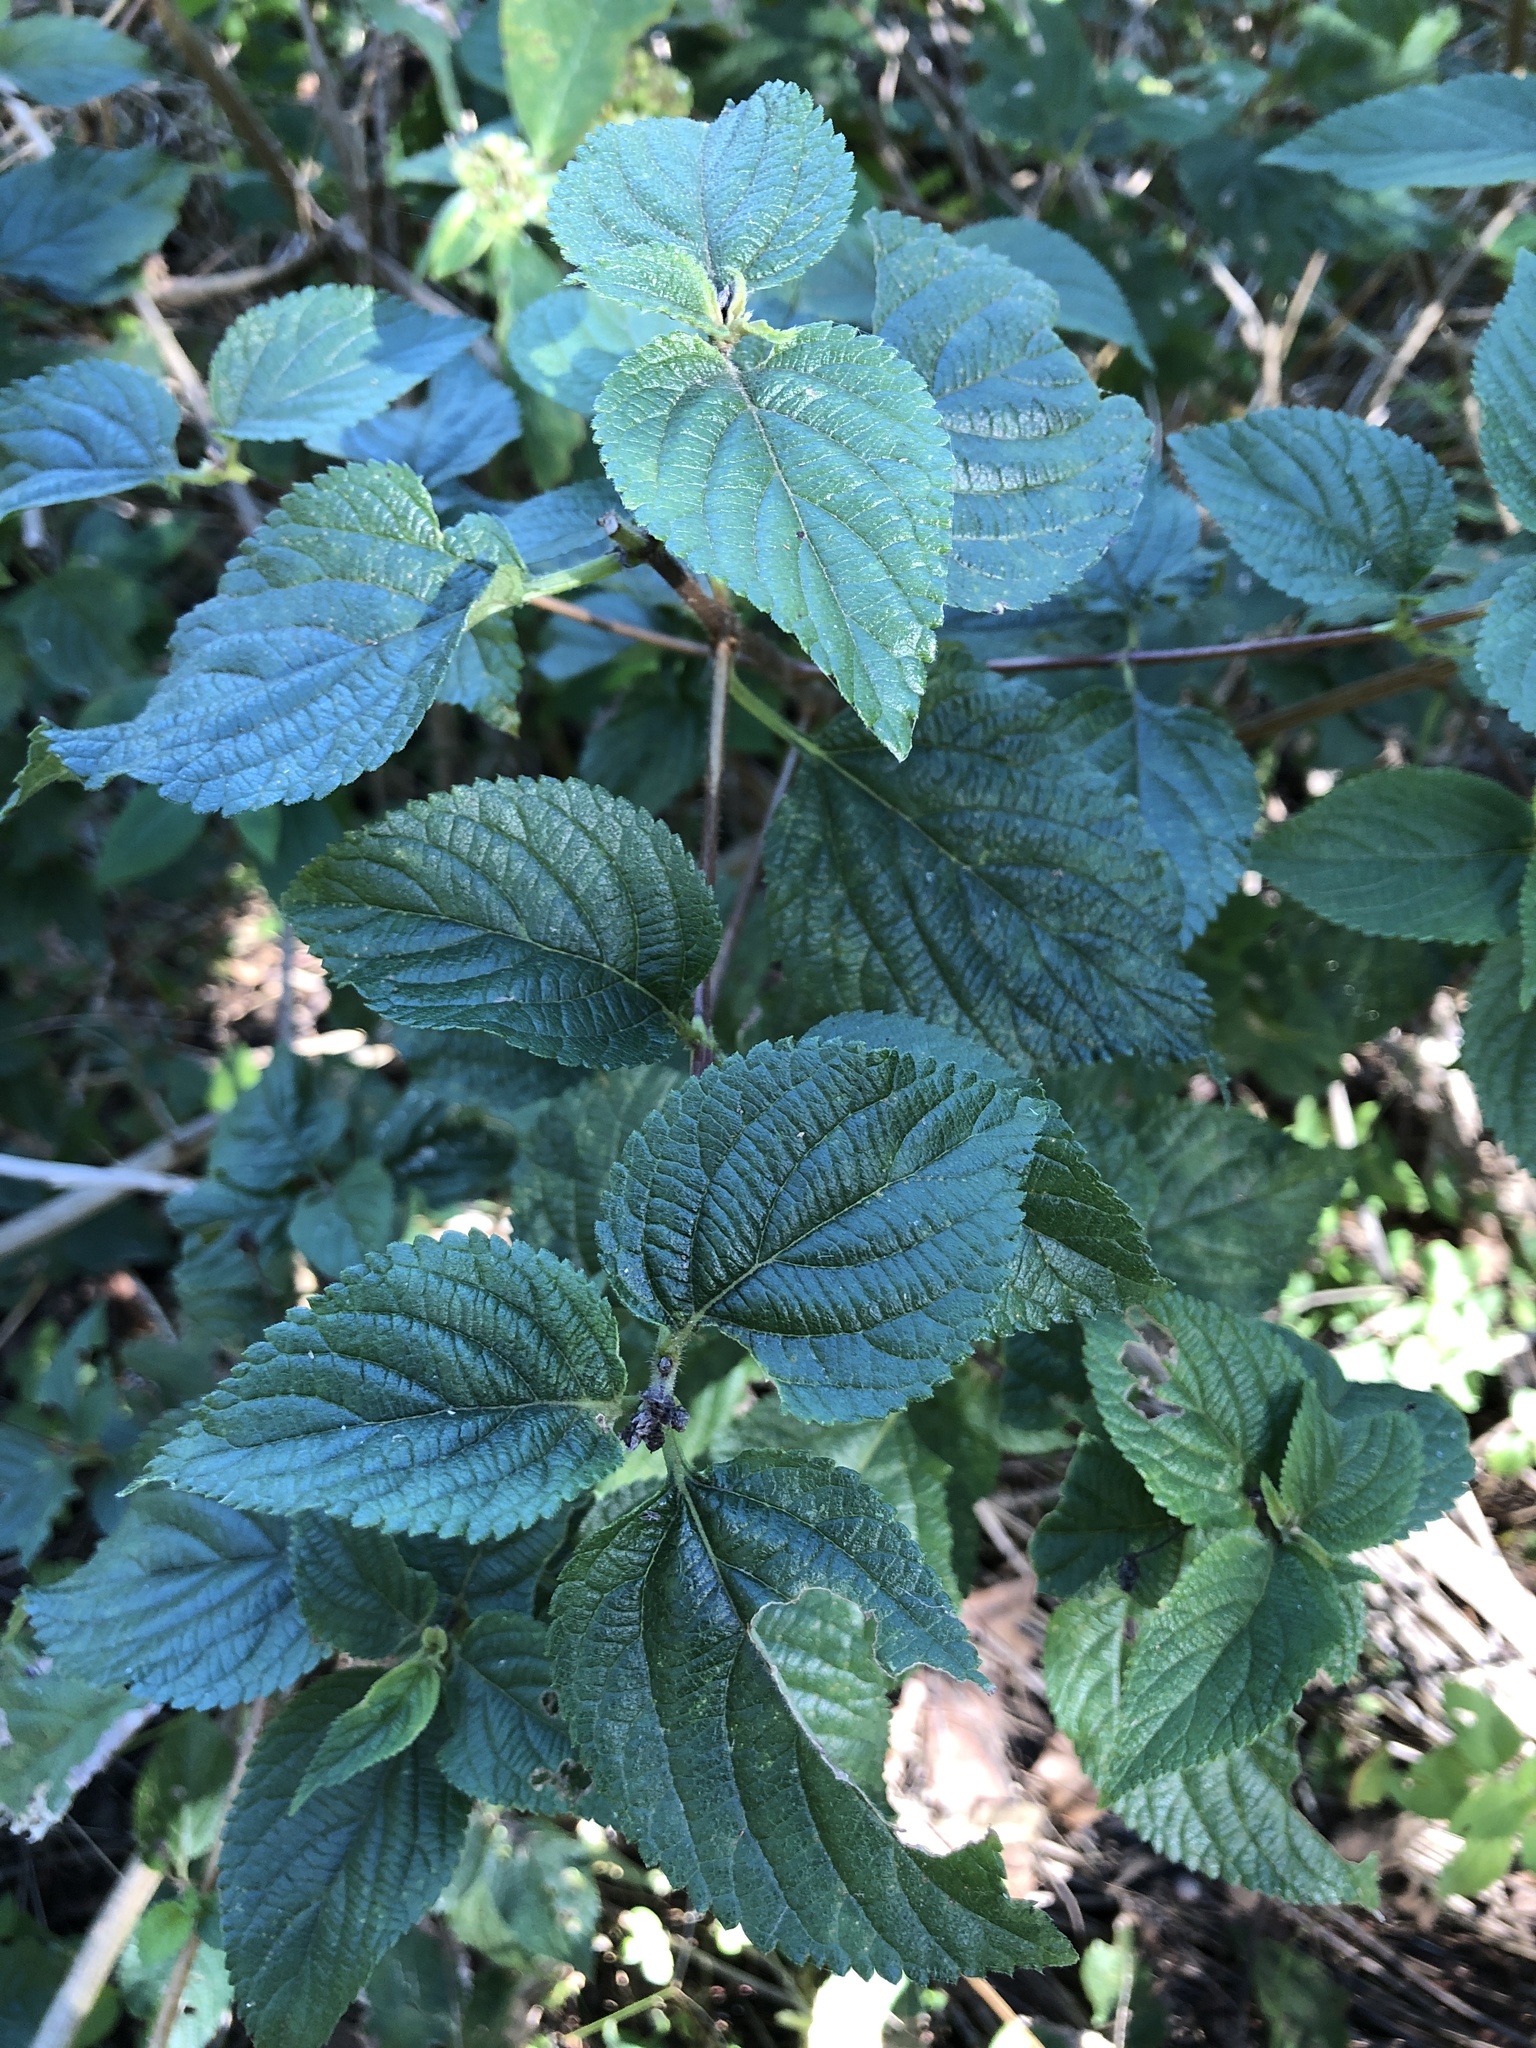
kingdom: Plantae
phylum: Tracheophyta
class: Magnoliopsida
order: Lamiales
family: Verbenaceae
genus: Lantana
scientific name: Lantana camara
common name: Lantana
